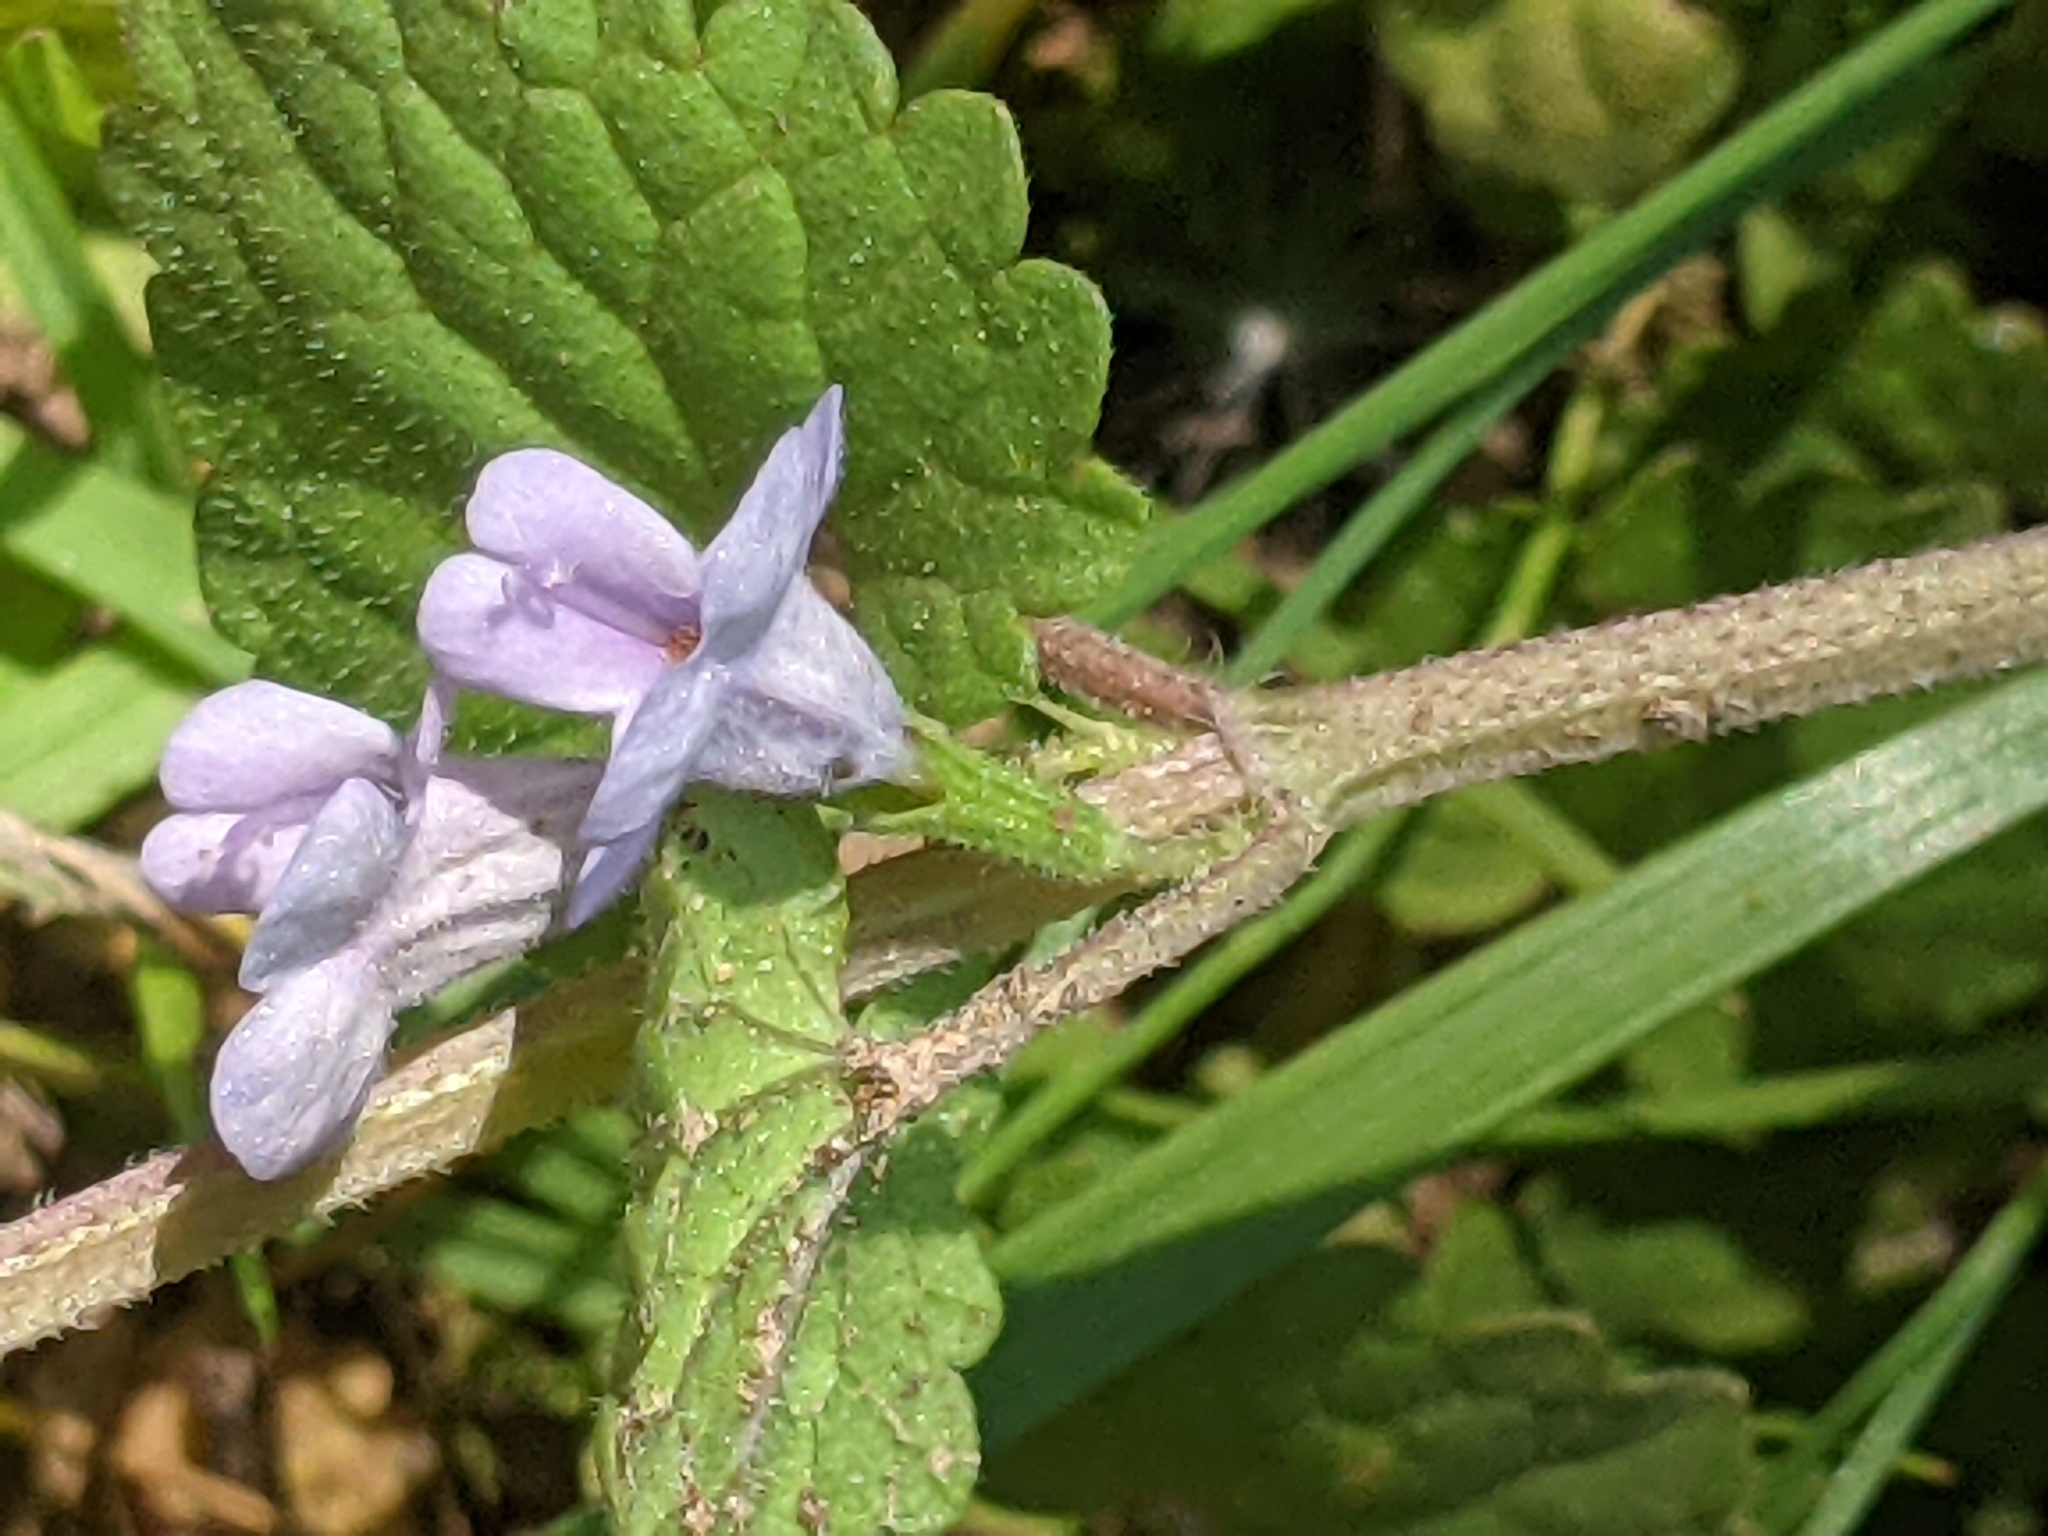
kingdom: Plantae
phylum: Tracheophyta
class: Magnoliopsida
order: Lamiales
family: Lamiaceae
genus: Glechoma
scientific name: Glechoma hederacea
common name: Ground ivy
